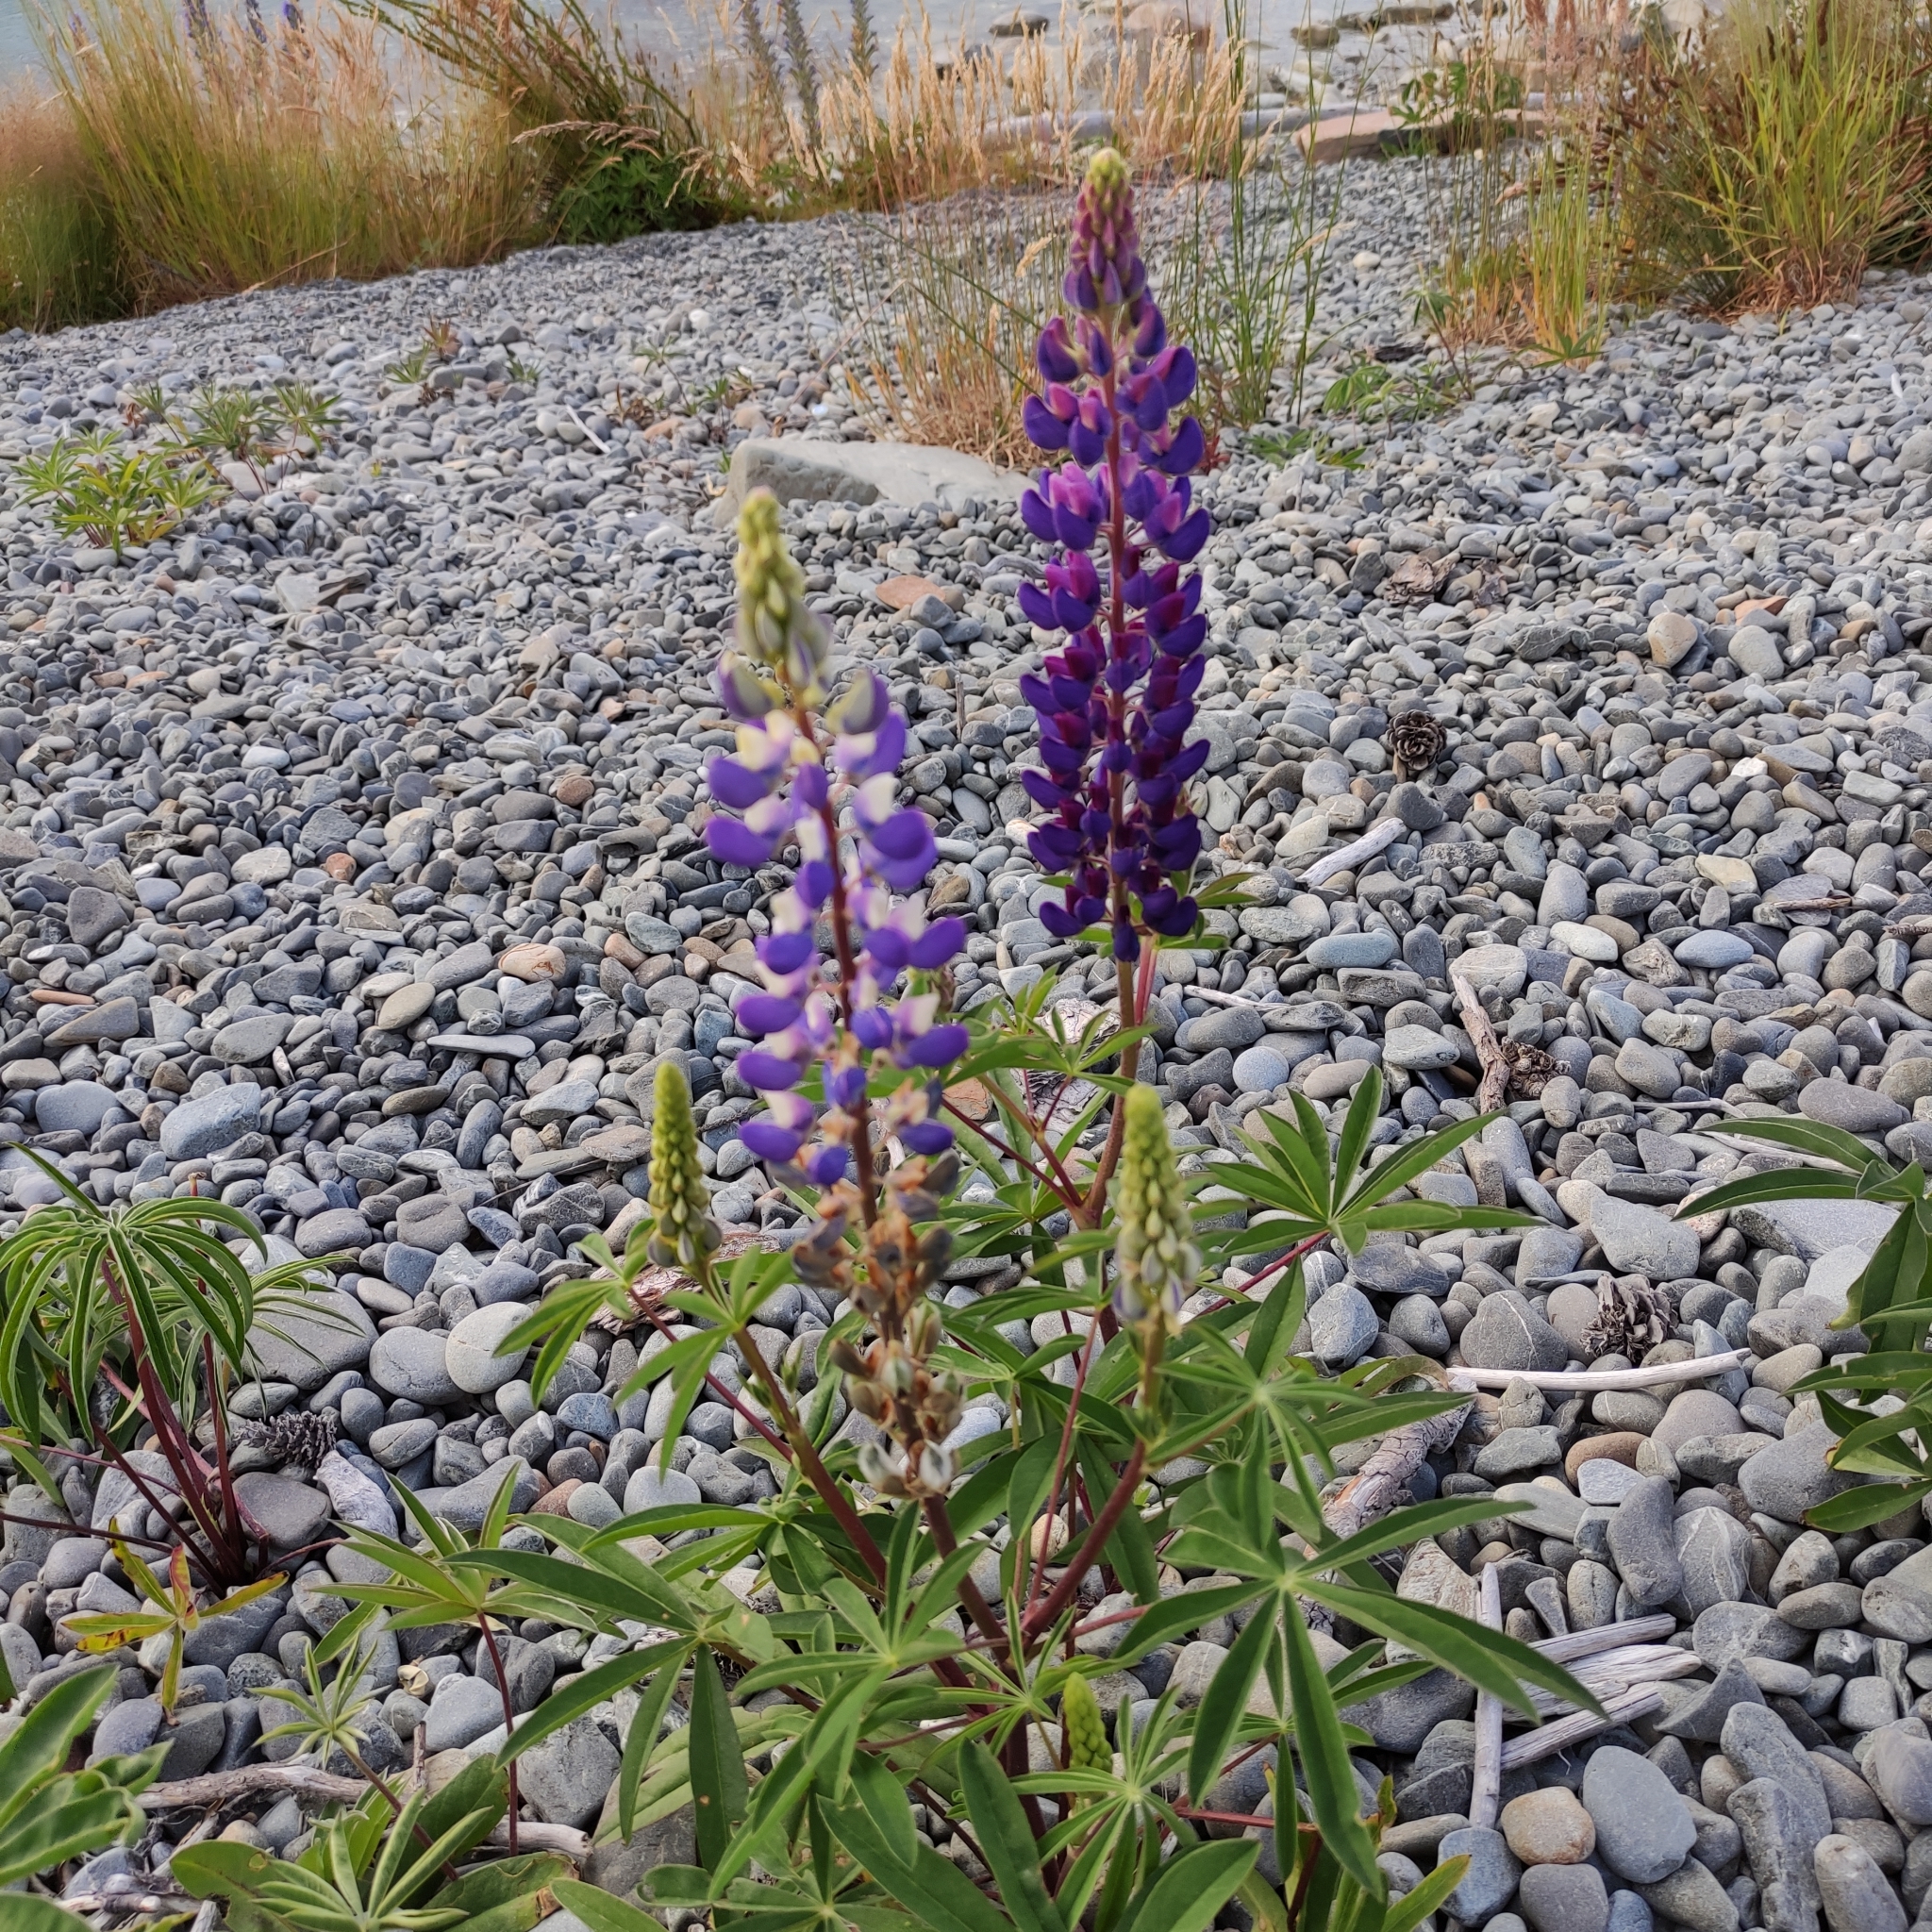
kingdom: Plantae
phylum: Tracheophyta
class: Magnoliopsida
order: Fabales
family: Fabaceae
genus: Lupinus
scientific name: Lupinus polyphyllus
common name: Garden lupin
